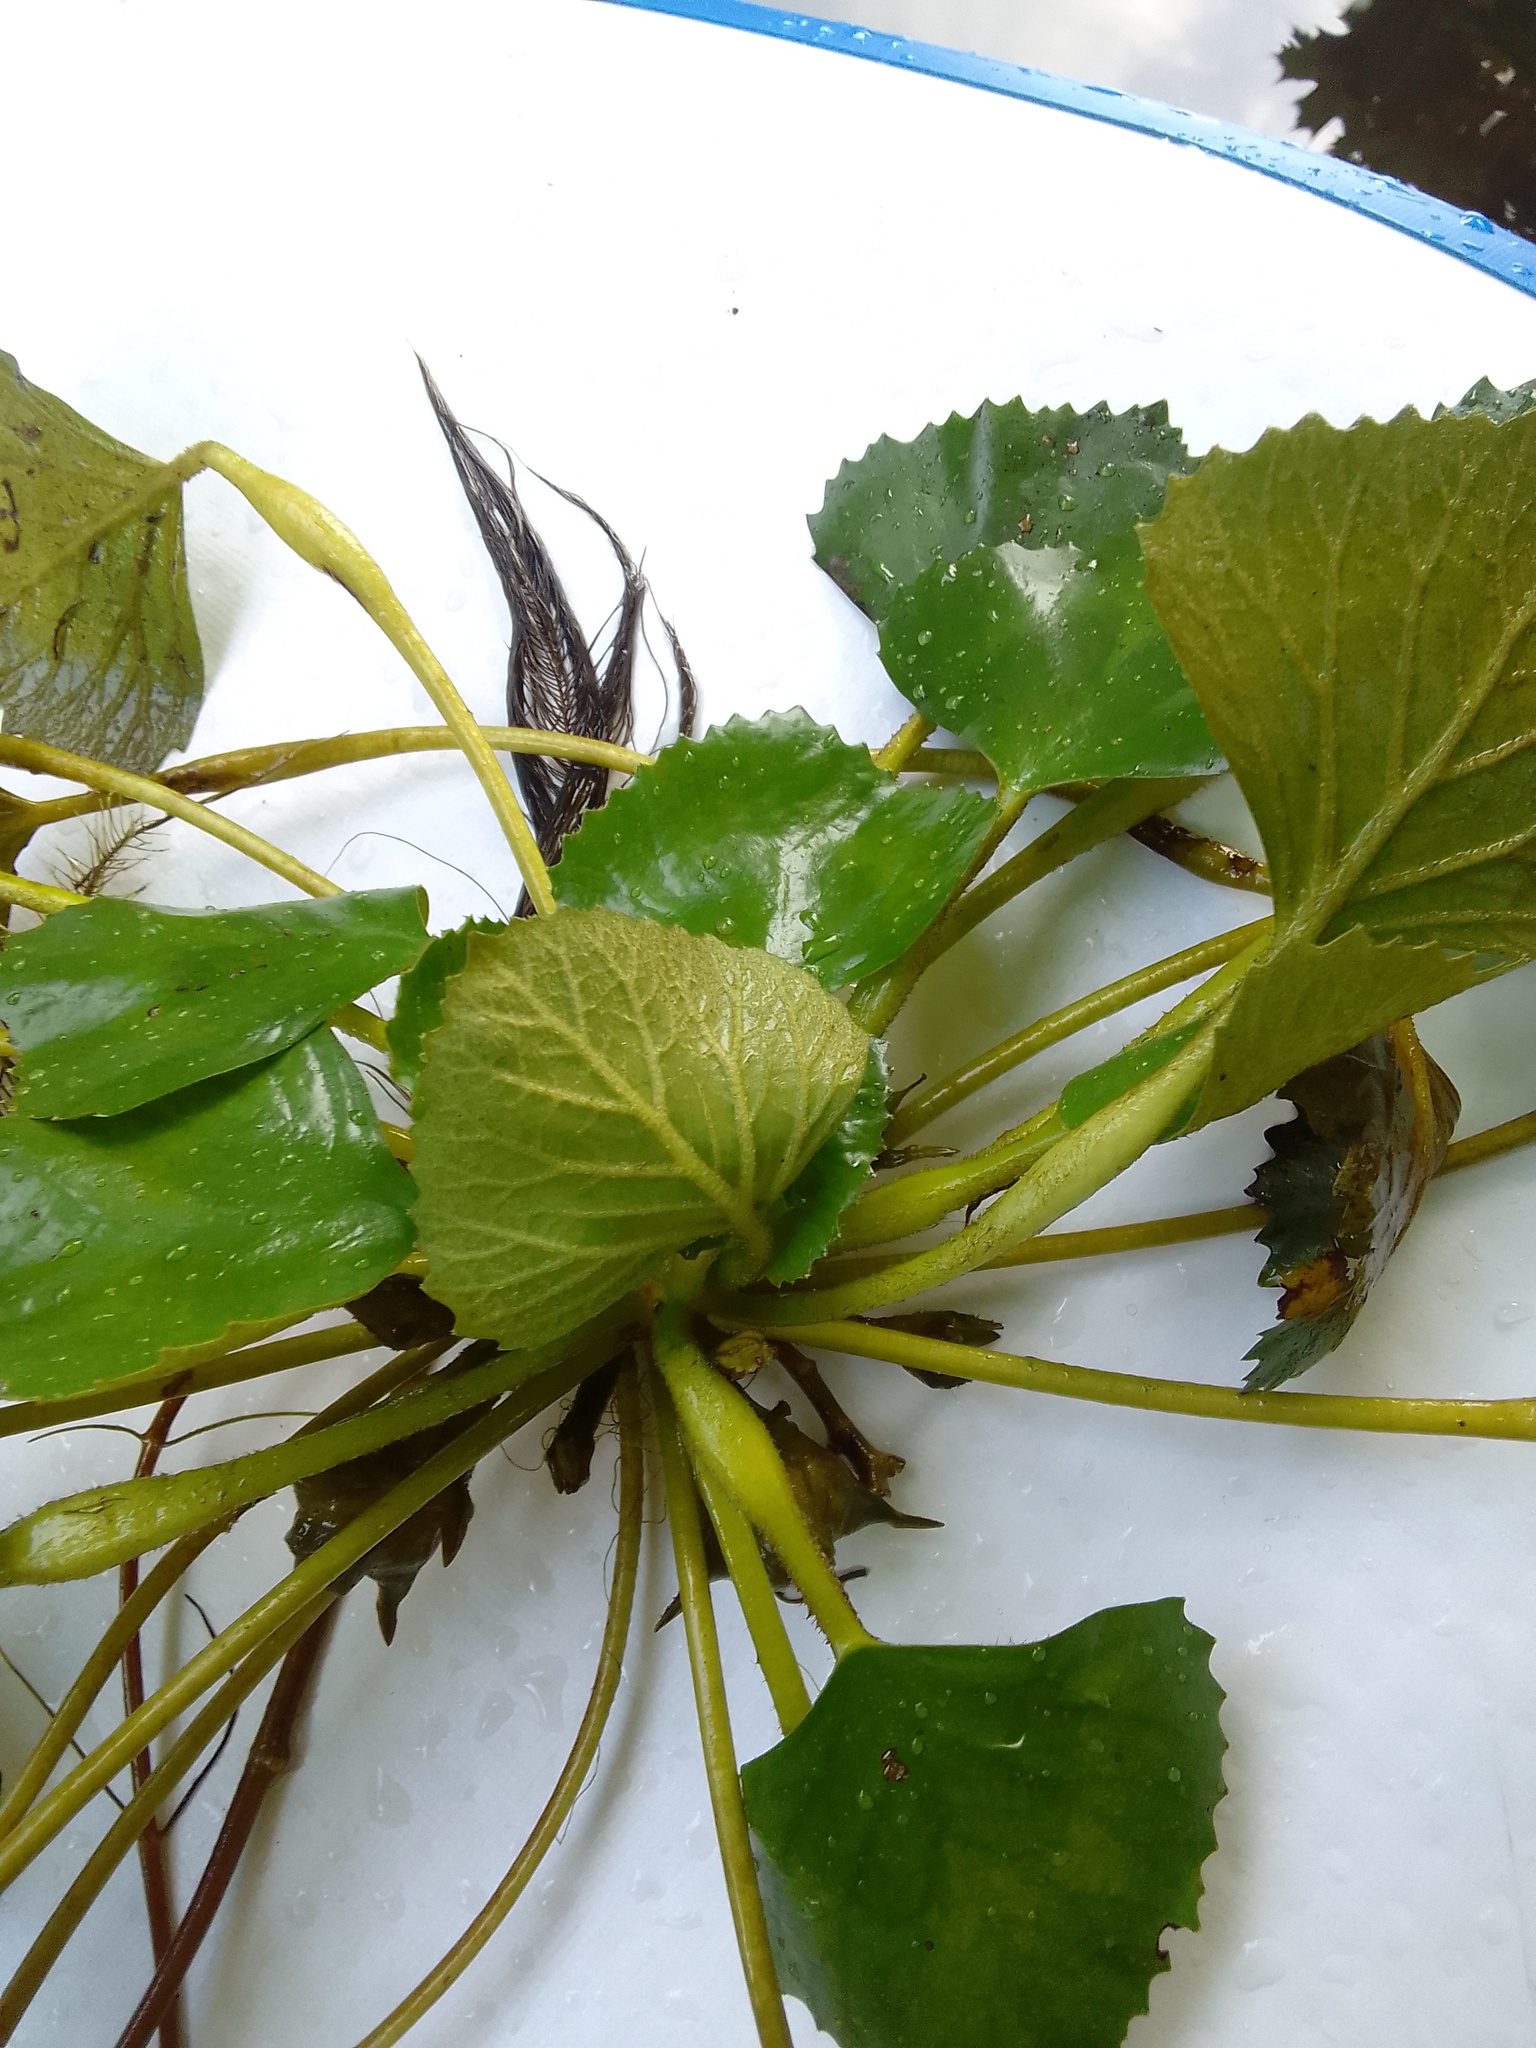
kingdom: Plantae
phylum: Tracheophyta
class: Magnoliopsida
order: Myrtales
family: Lythraceae
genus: Trapa
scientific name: Trapa natans
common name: Water chestnut
